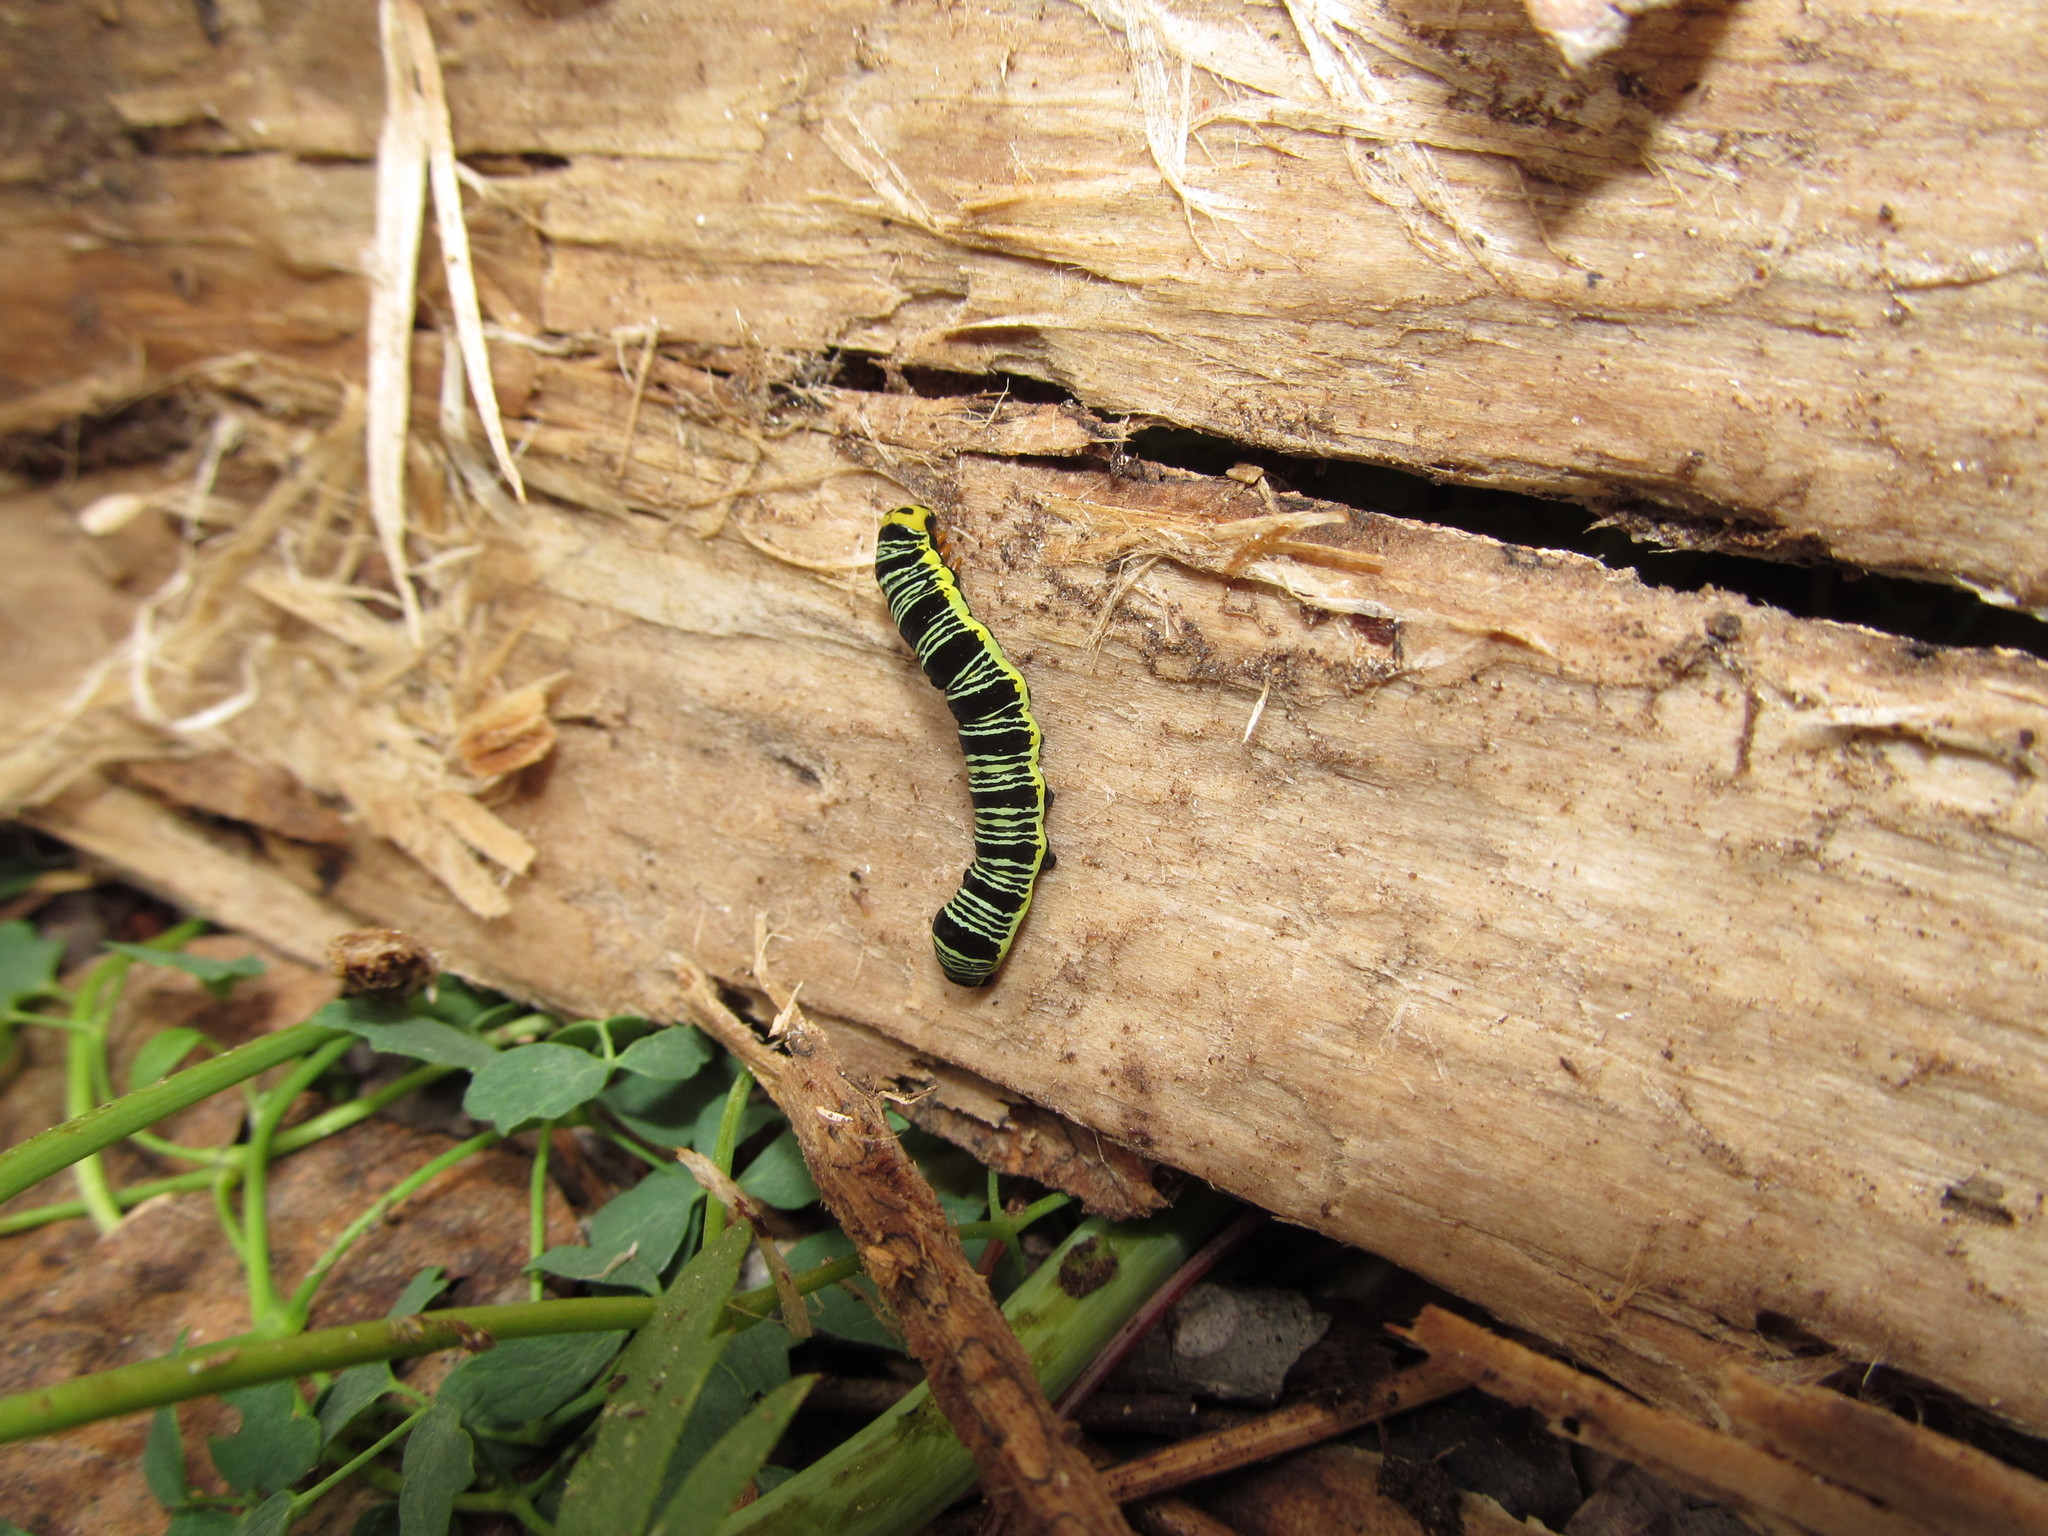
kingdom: Animalia
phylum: Arthropoda
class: Insecta
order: Lepidoptera
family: Erebidae
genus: Calyptra
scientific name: Calyptra canadensis
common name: Canadian owlet
